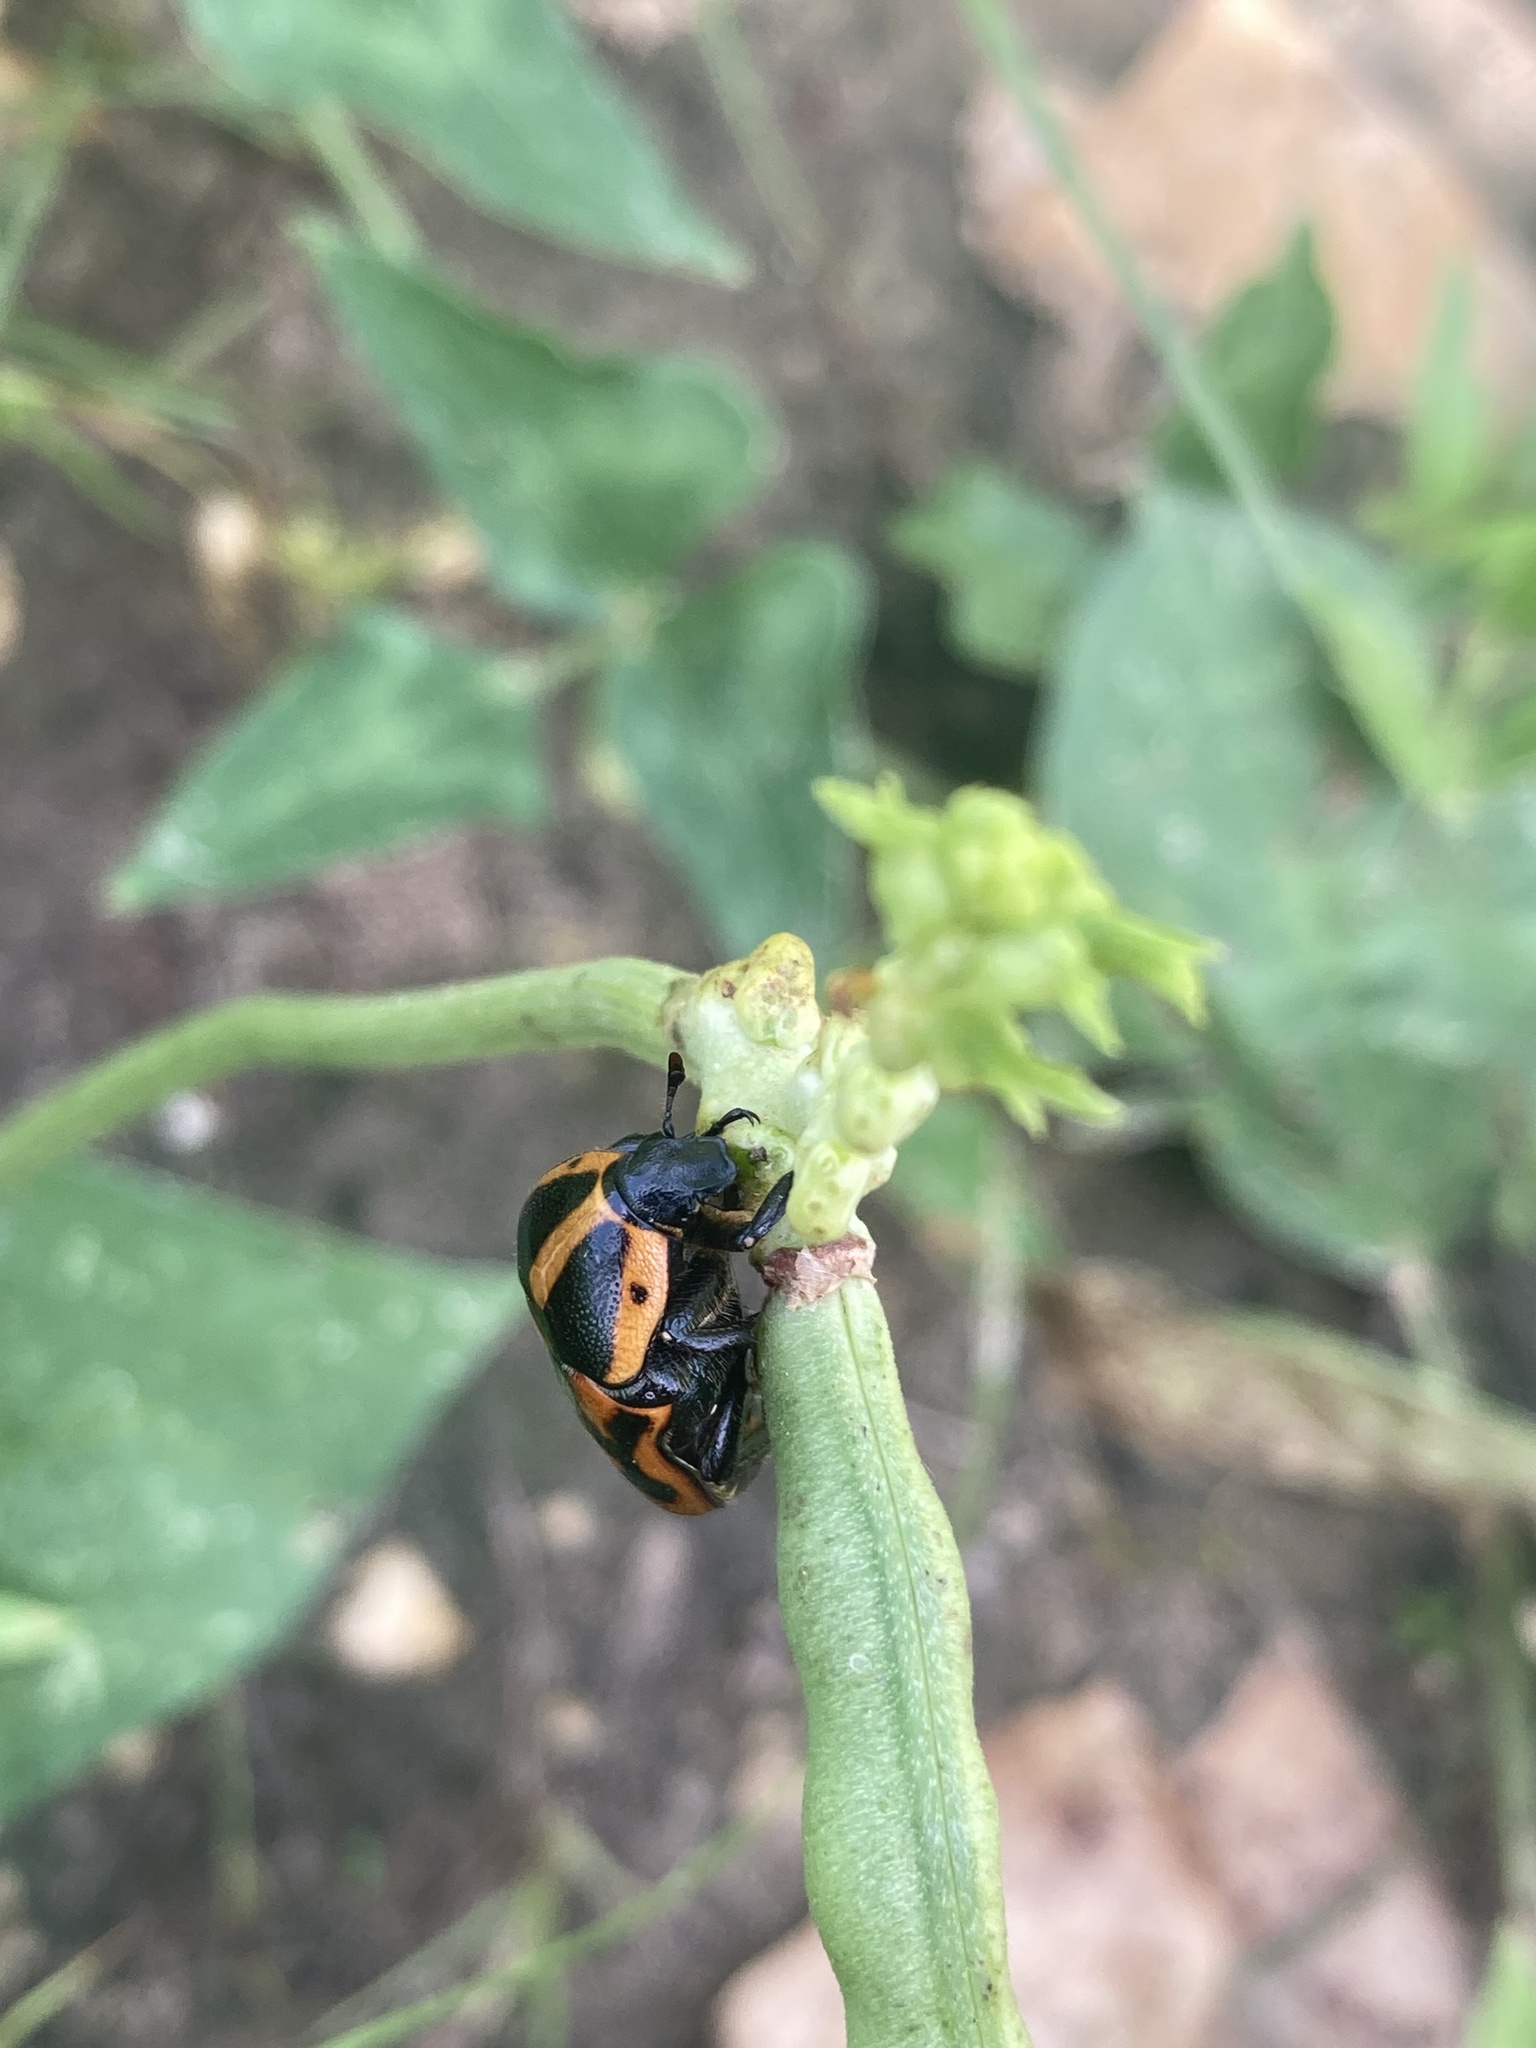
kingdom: Animalia
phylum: Arthropoda
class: Insecta
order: Coleoptera
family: Scarabaeidae
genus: Pachnoda
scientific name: Pachnoda interrupta
